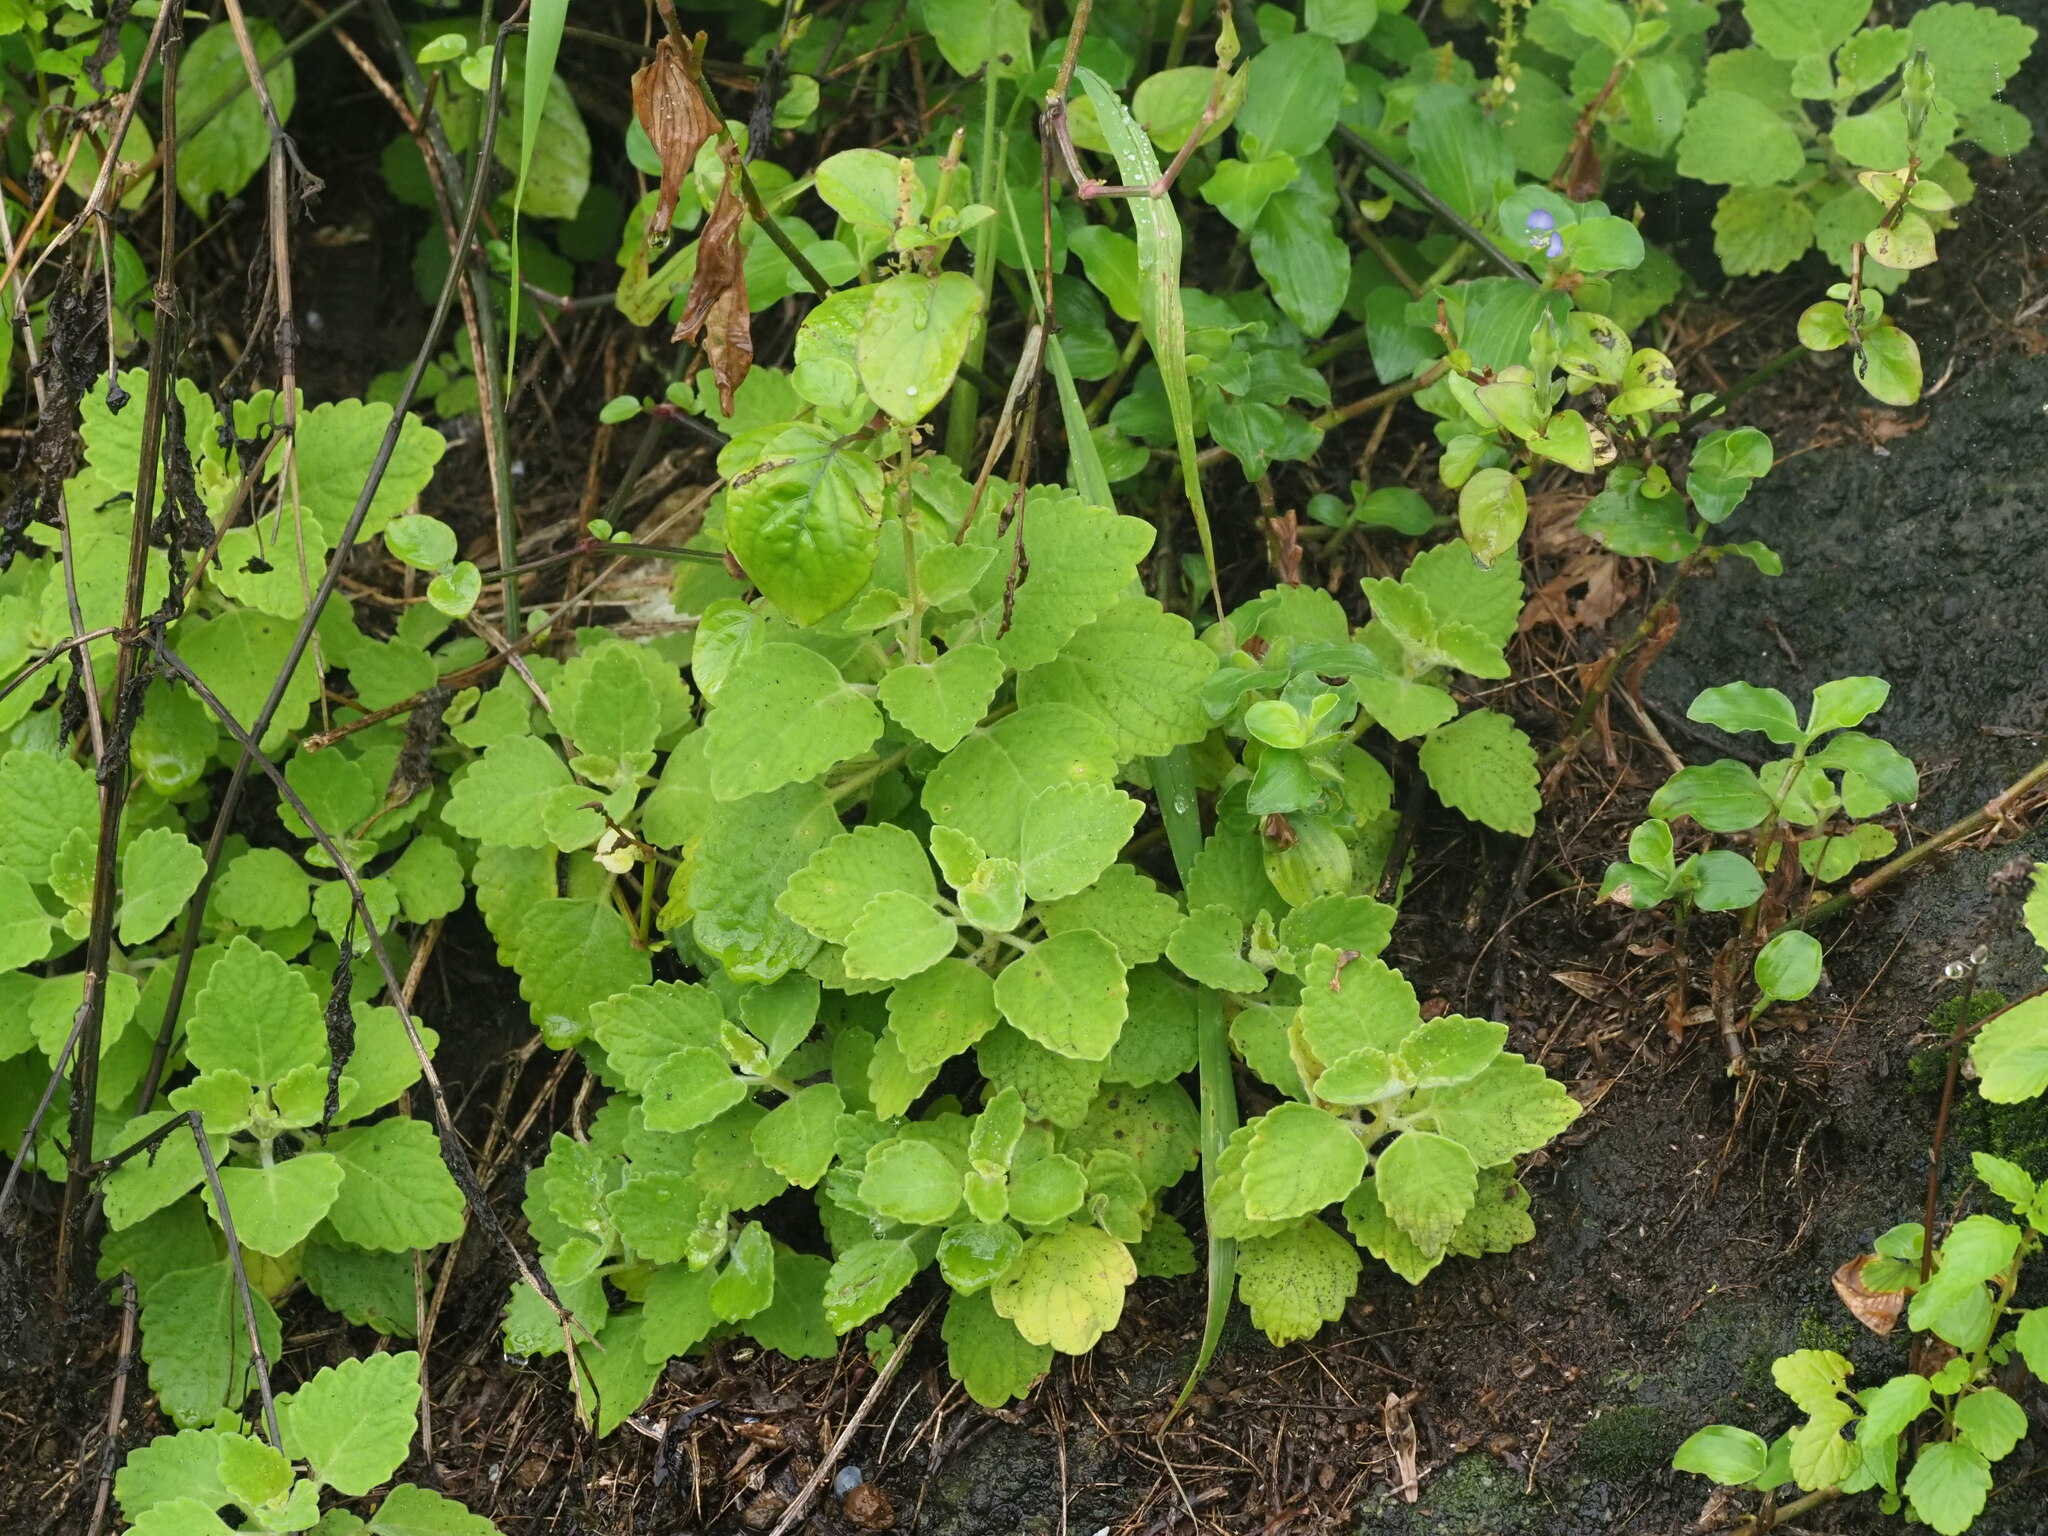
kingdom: Plantae
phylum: Tracheophyta
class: Magnoliopsida
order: Lamiales
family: Lamiaceae
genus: Coleus
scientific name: Coleus australis
